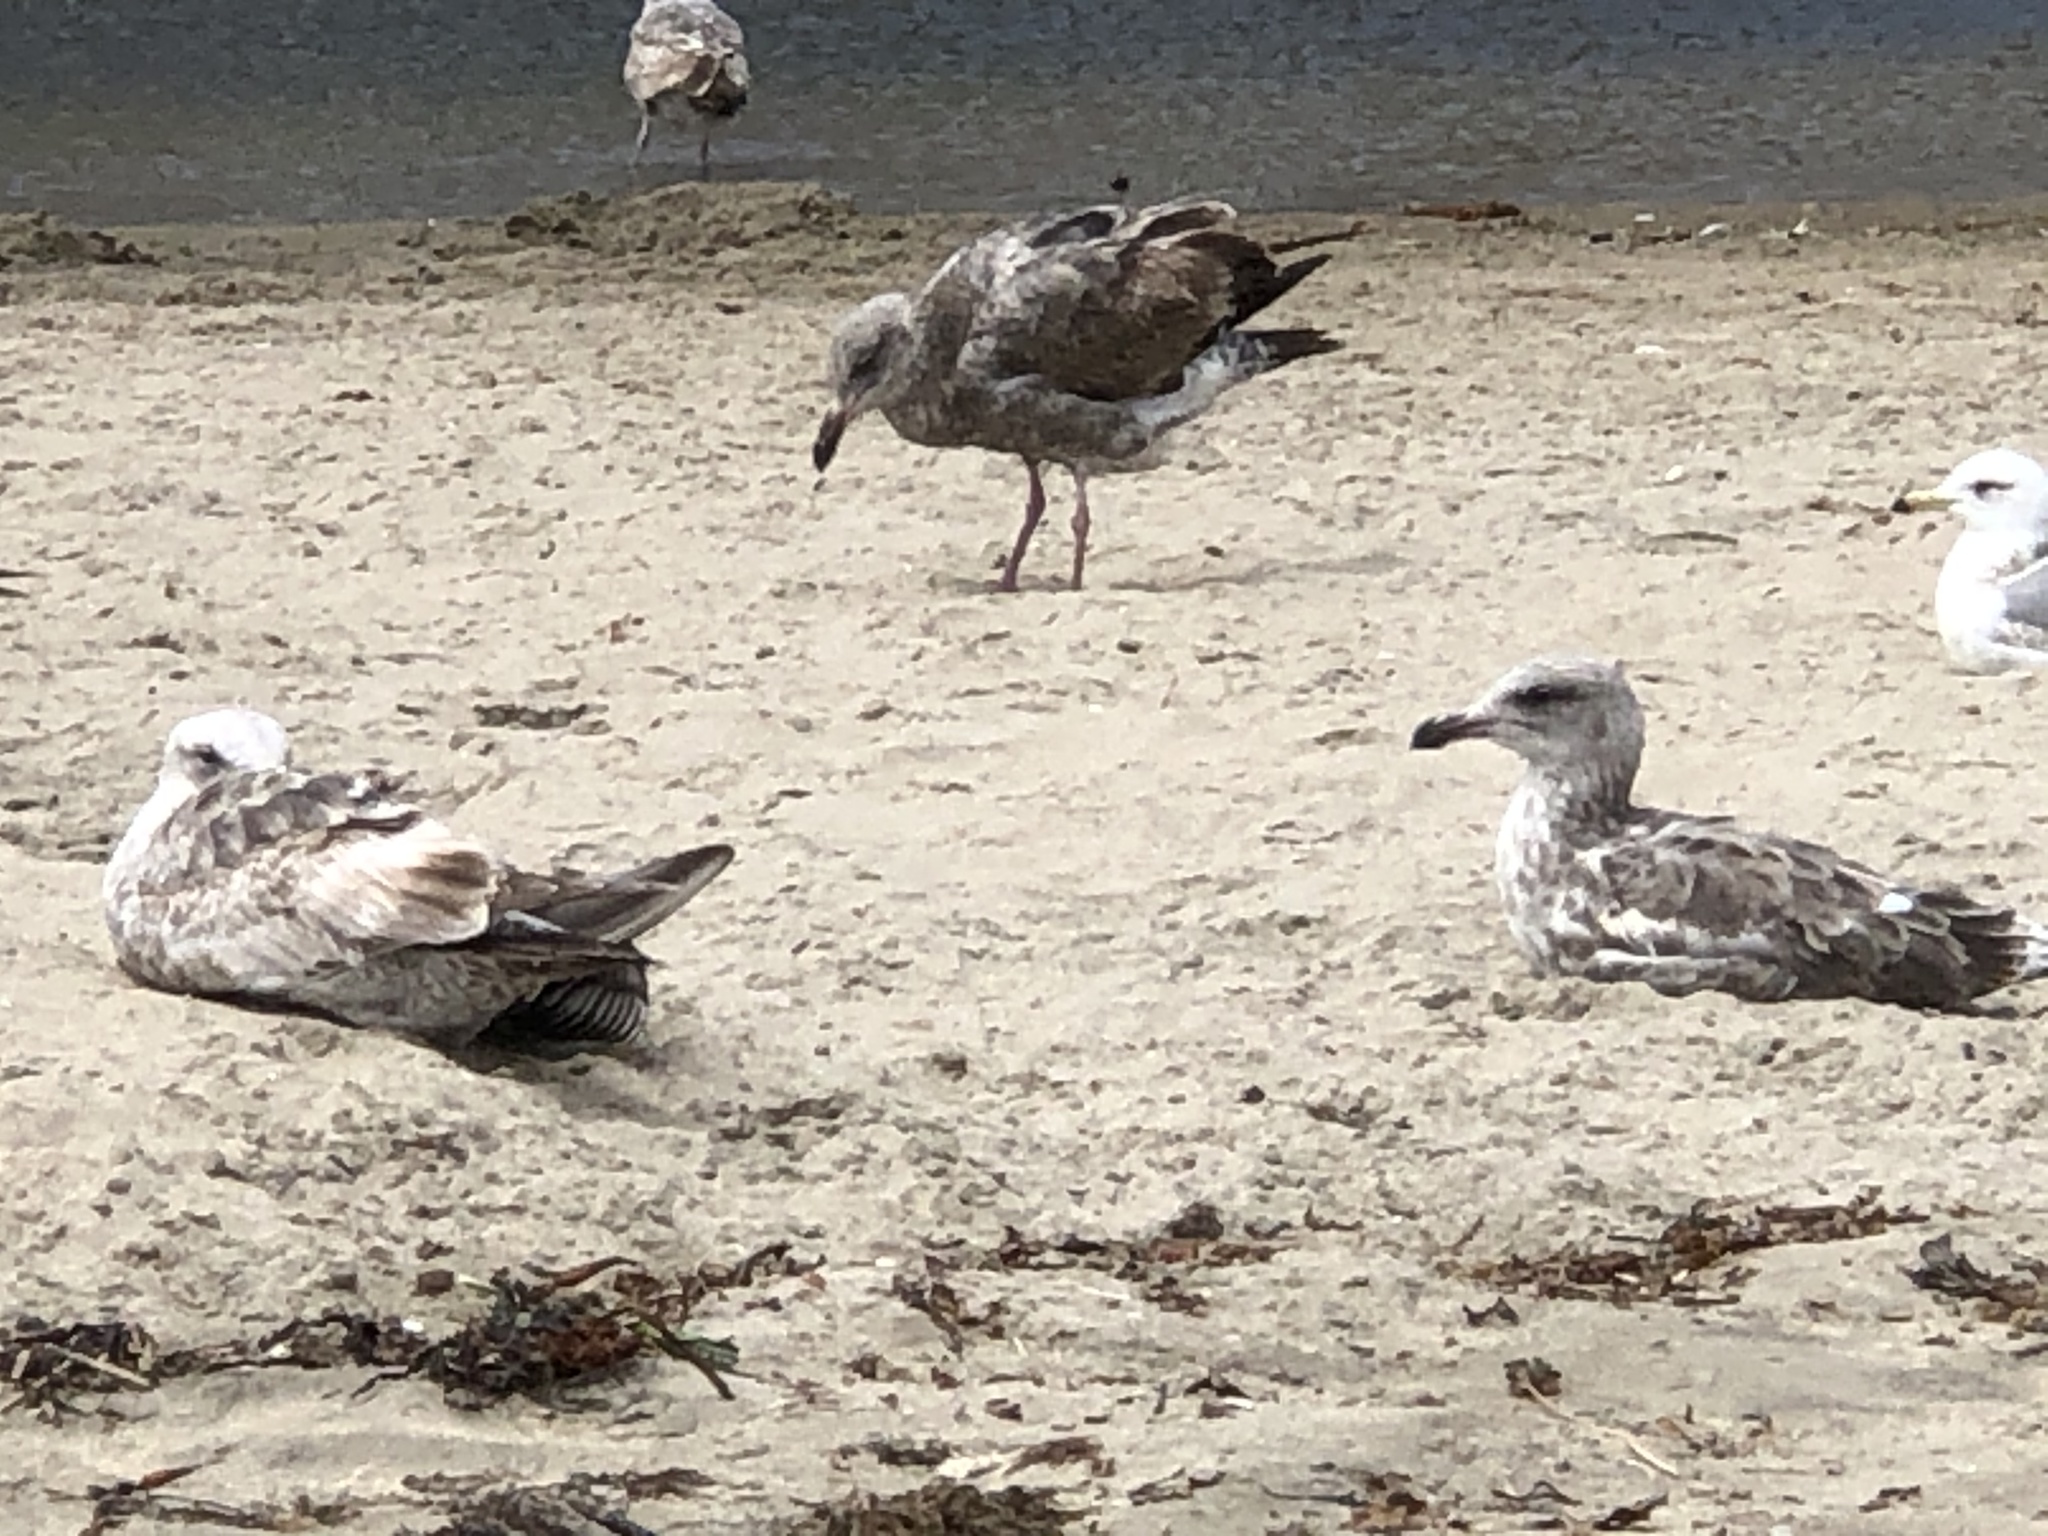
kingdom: Animalia
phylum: Chordata
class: Aves
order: Charadriiformes
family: Laridae
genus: Larus
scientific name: Larus occidentalis
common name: Western gull
